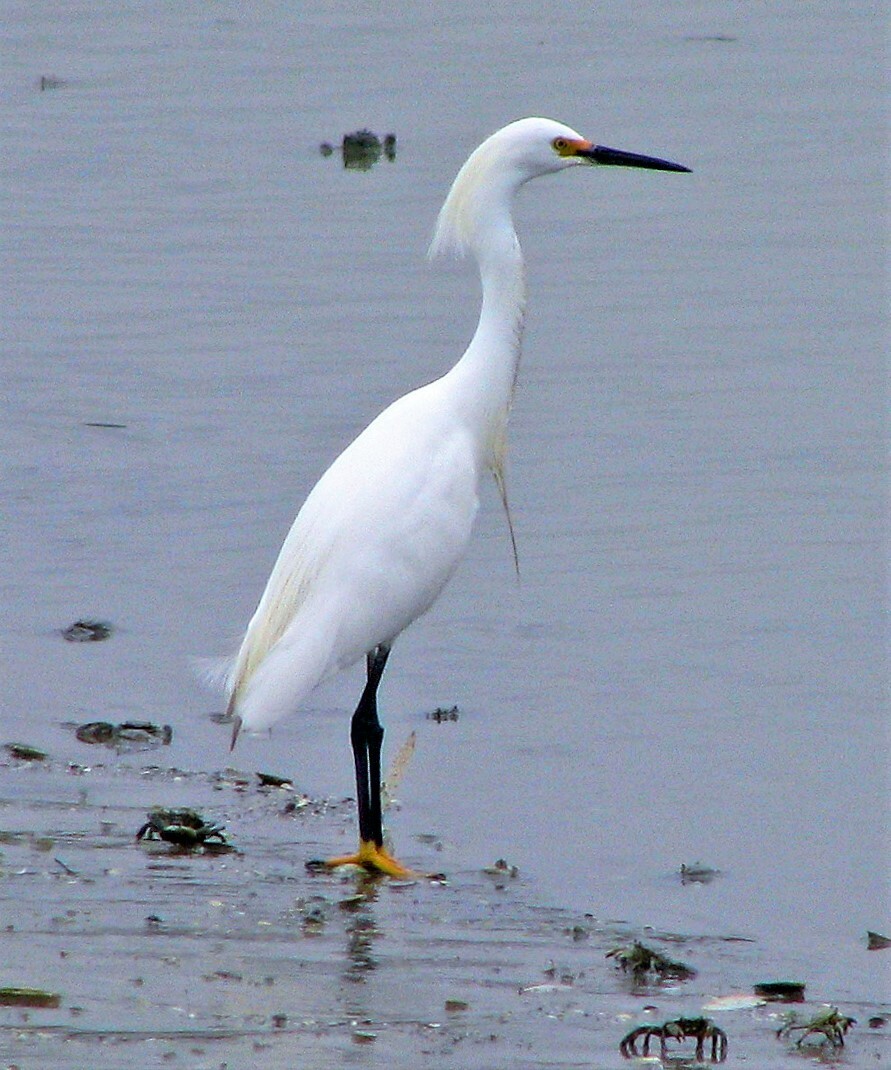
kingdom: Animalia
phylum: Chordata
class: Aves
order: Pelecaniformes
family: Ardeidae
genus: Egretta
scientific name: Egretta thula
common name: Snowy egret
